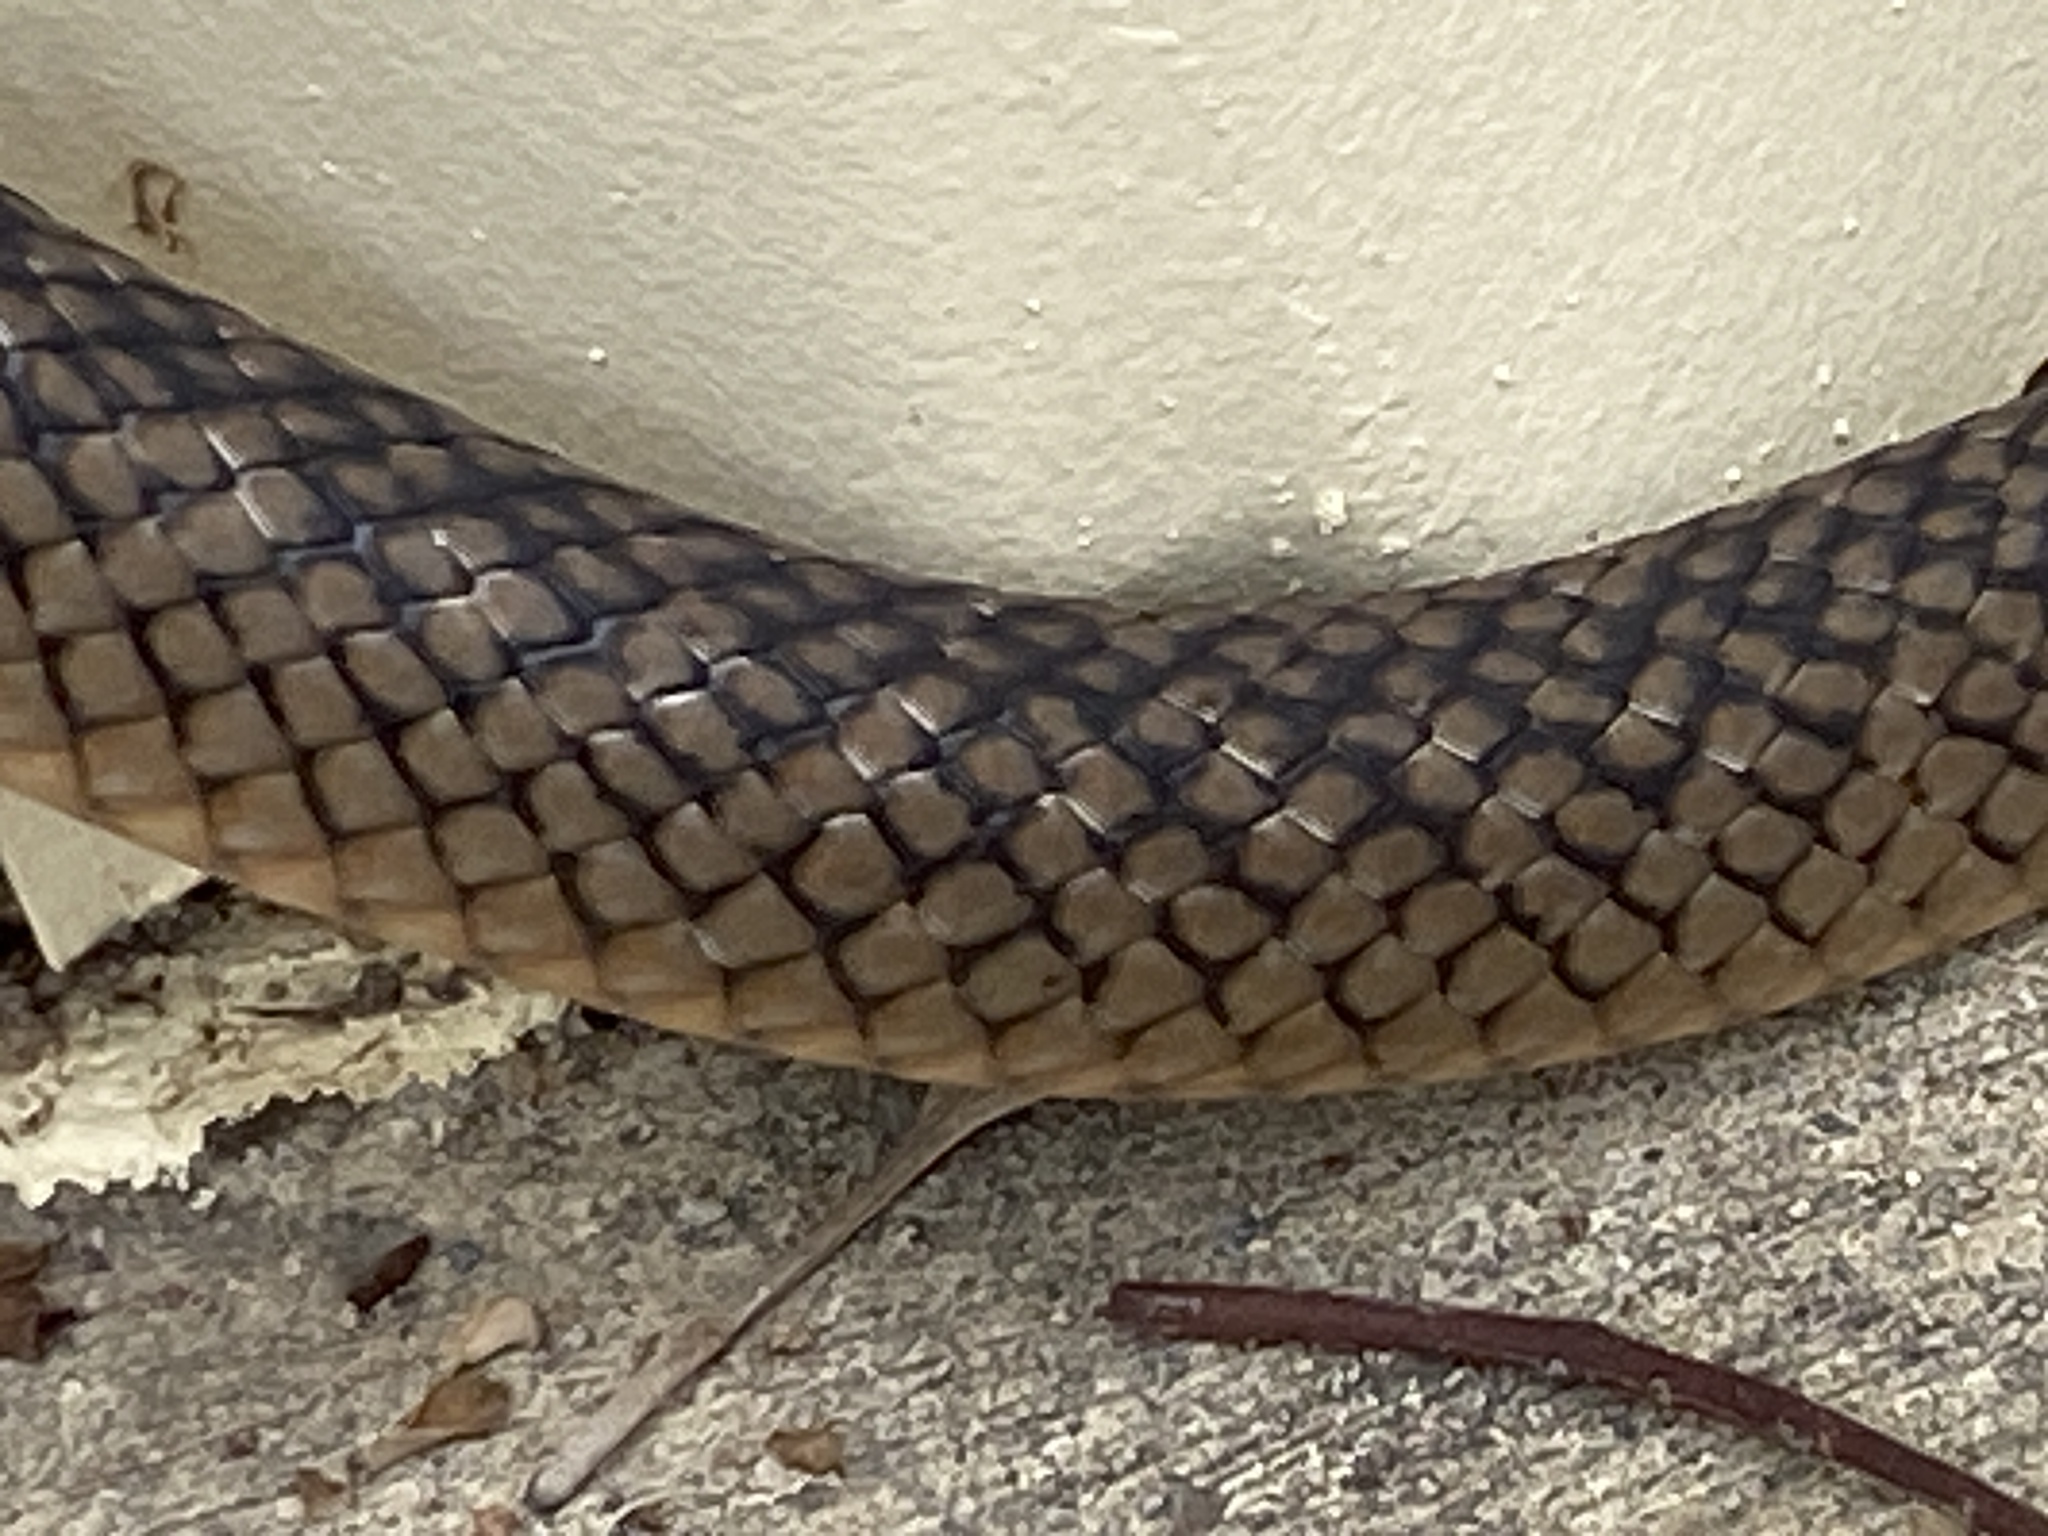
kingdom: Animalia
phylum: Chordata
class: Squamata
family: Elapidae
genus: Pseudonaja
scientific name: Pseudonaja textilis
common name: Eastern brown snake
